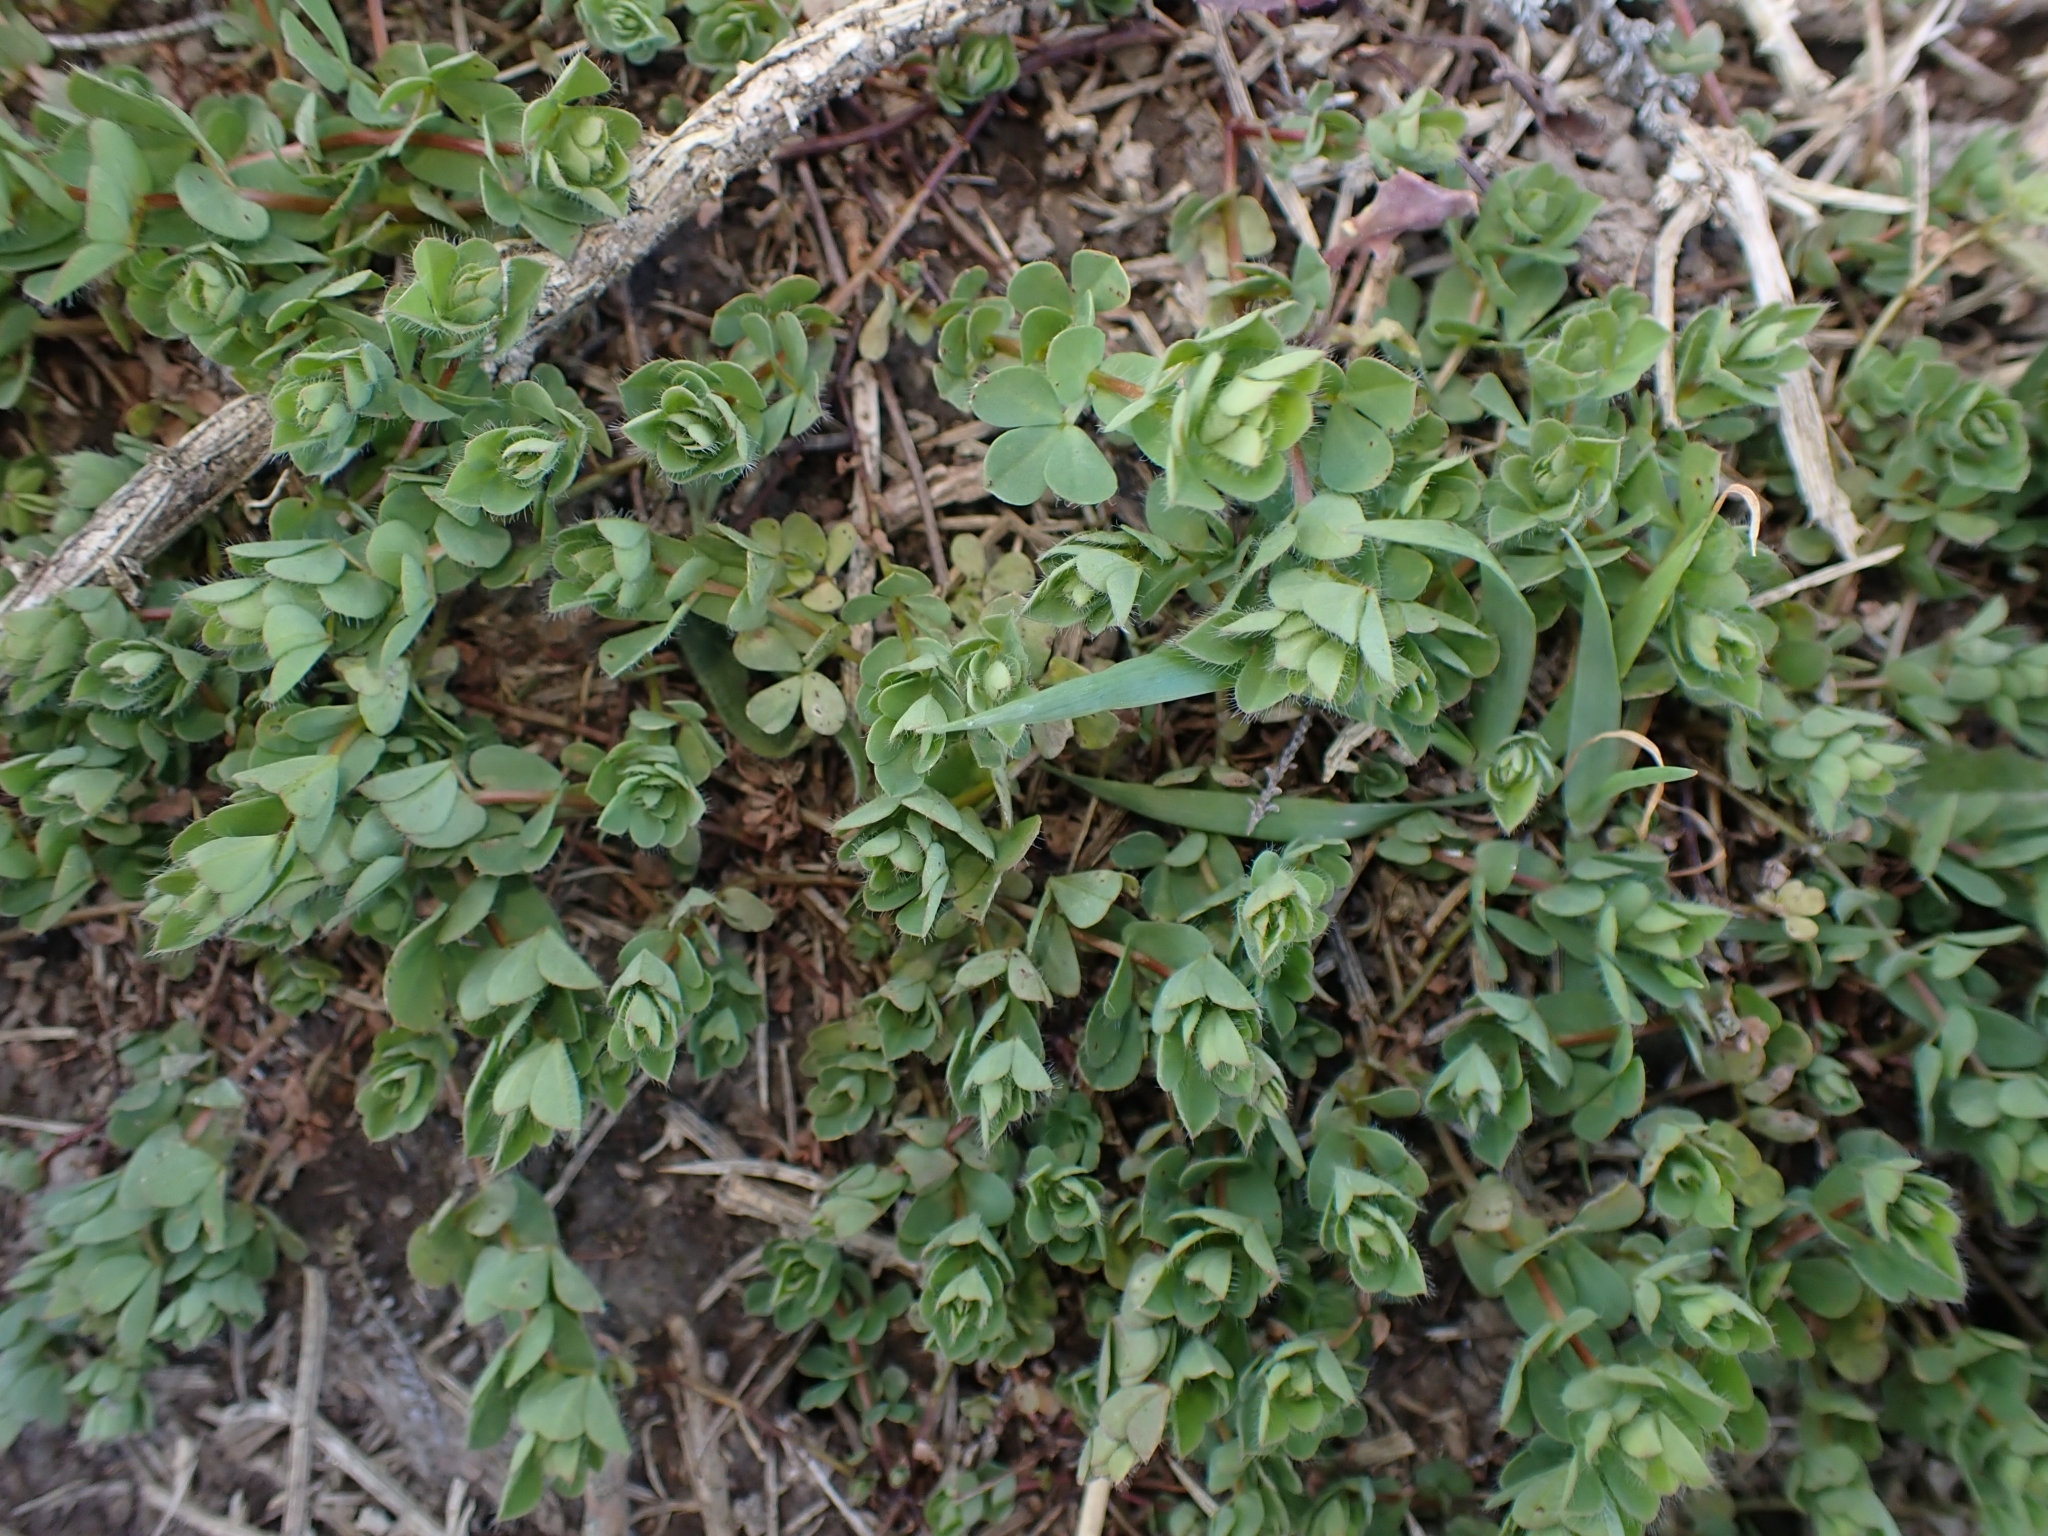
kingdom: Plantae
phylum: Tracheophyta
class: Magnoliopsida
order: Fabales
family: Fabaceae
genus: Lotus
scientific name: Lotus pedunculatus
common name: Greater birdsfoot-trefoil
